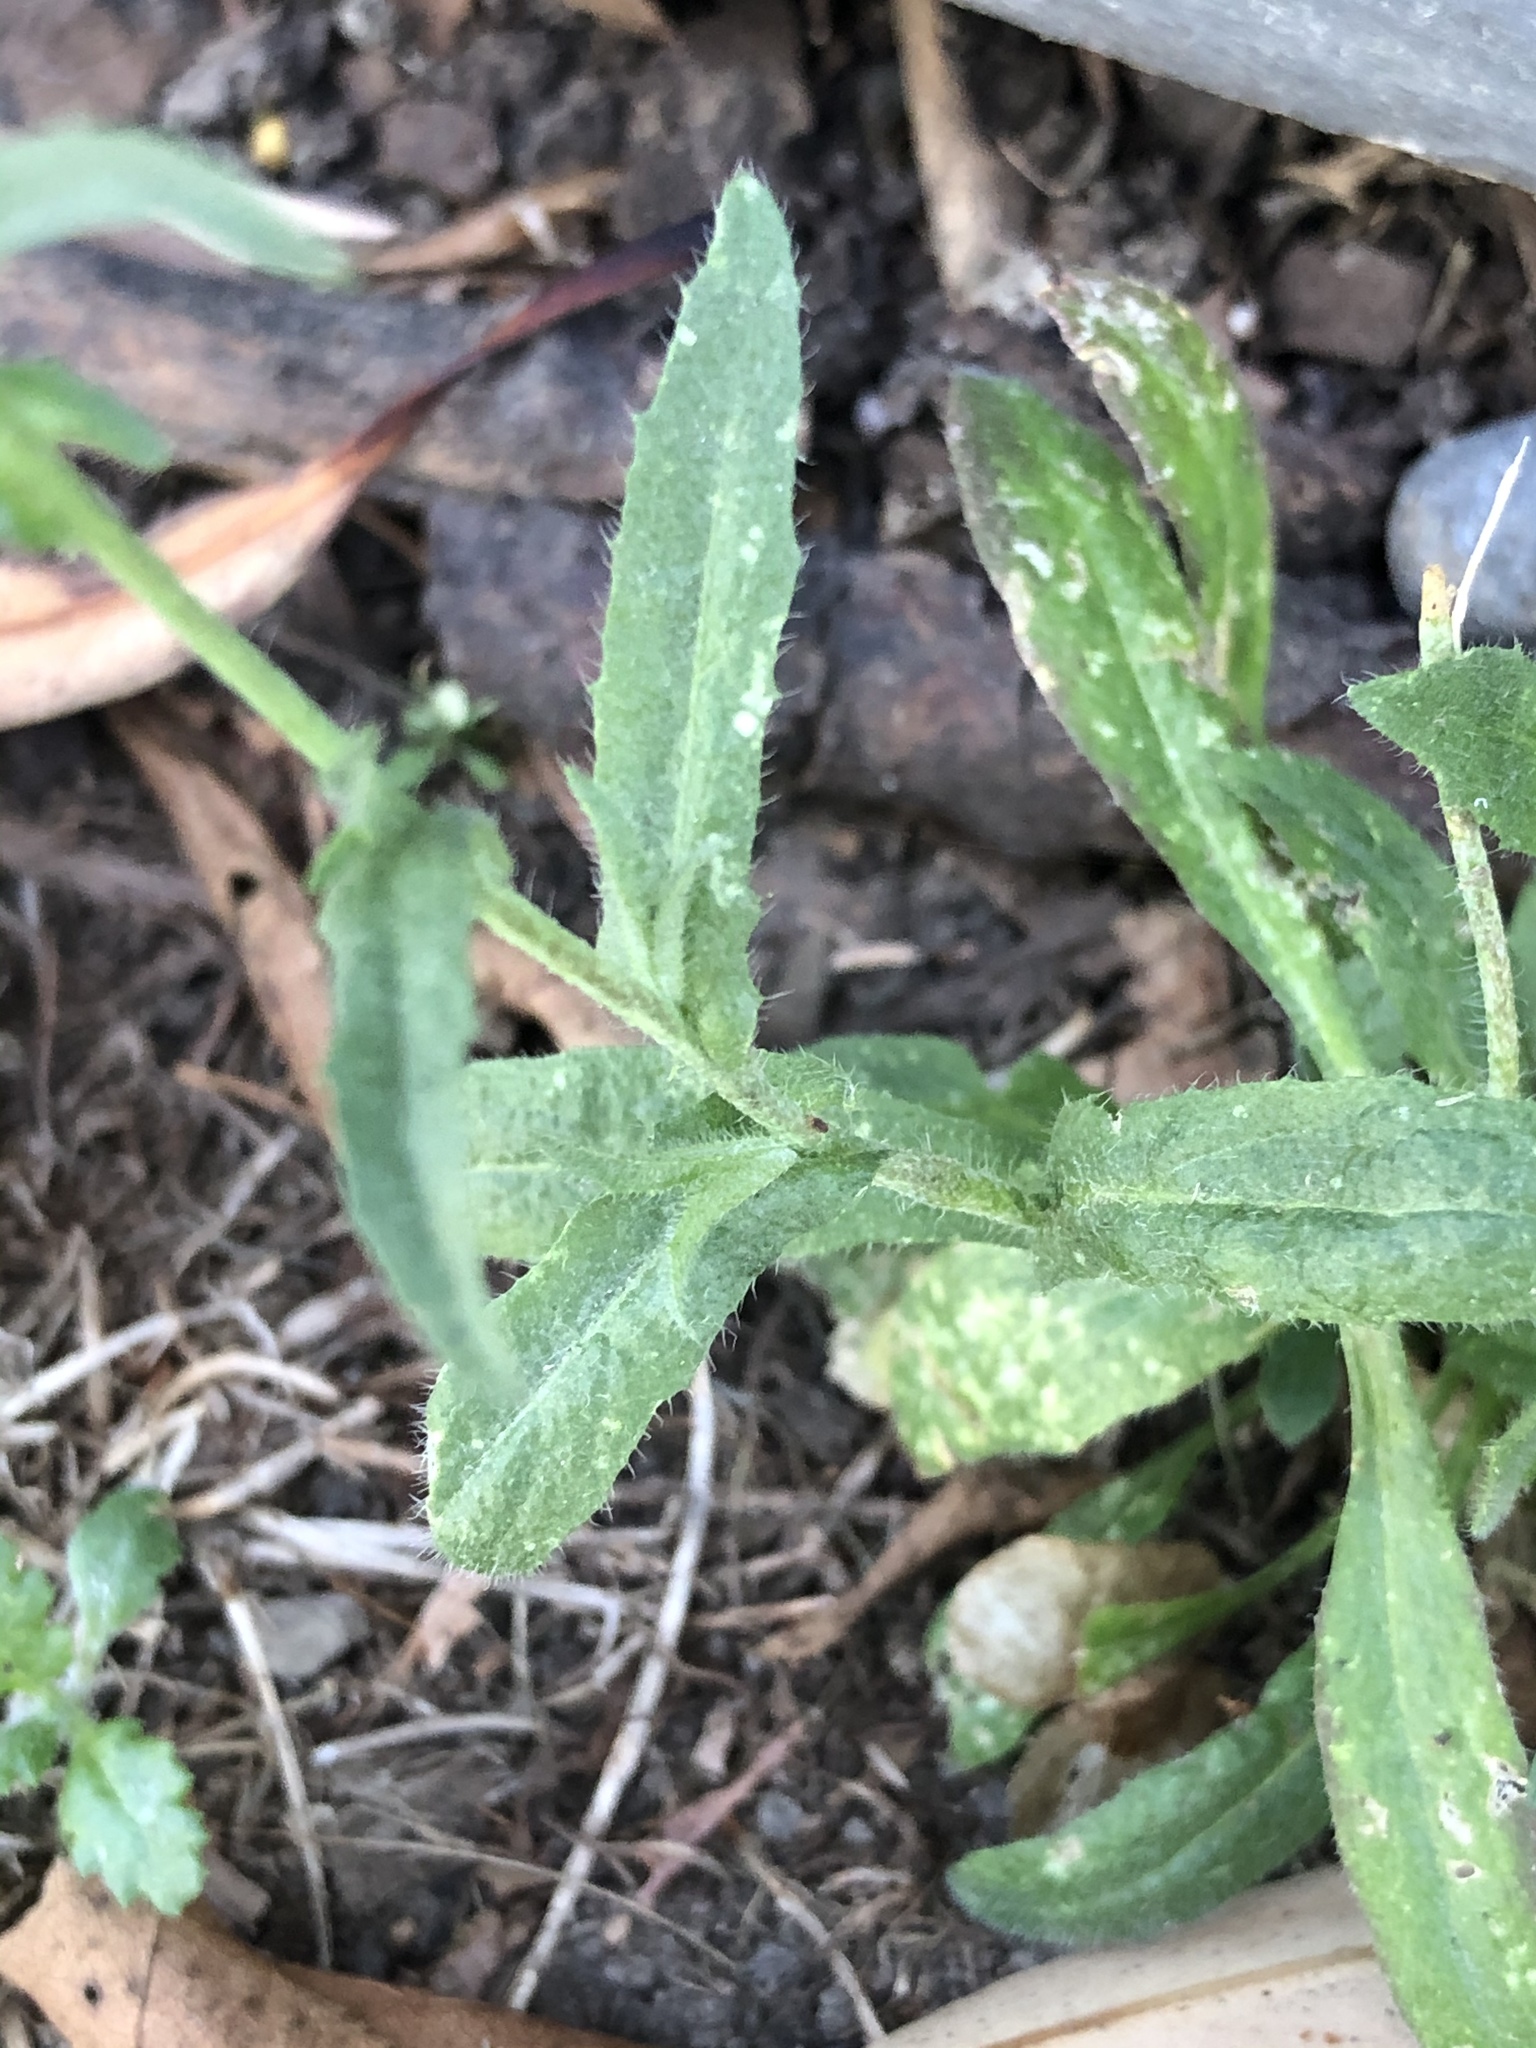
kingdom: Plantae
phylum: Tracheophyta
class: Magnoliopsida
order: Brassicales
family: Brassicaceae
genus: Capsella
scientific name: Capsella bursa-pastoris
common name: Shepherd's purse
